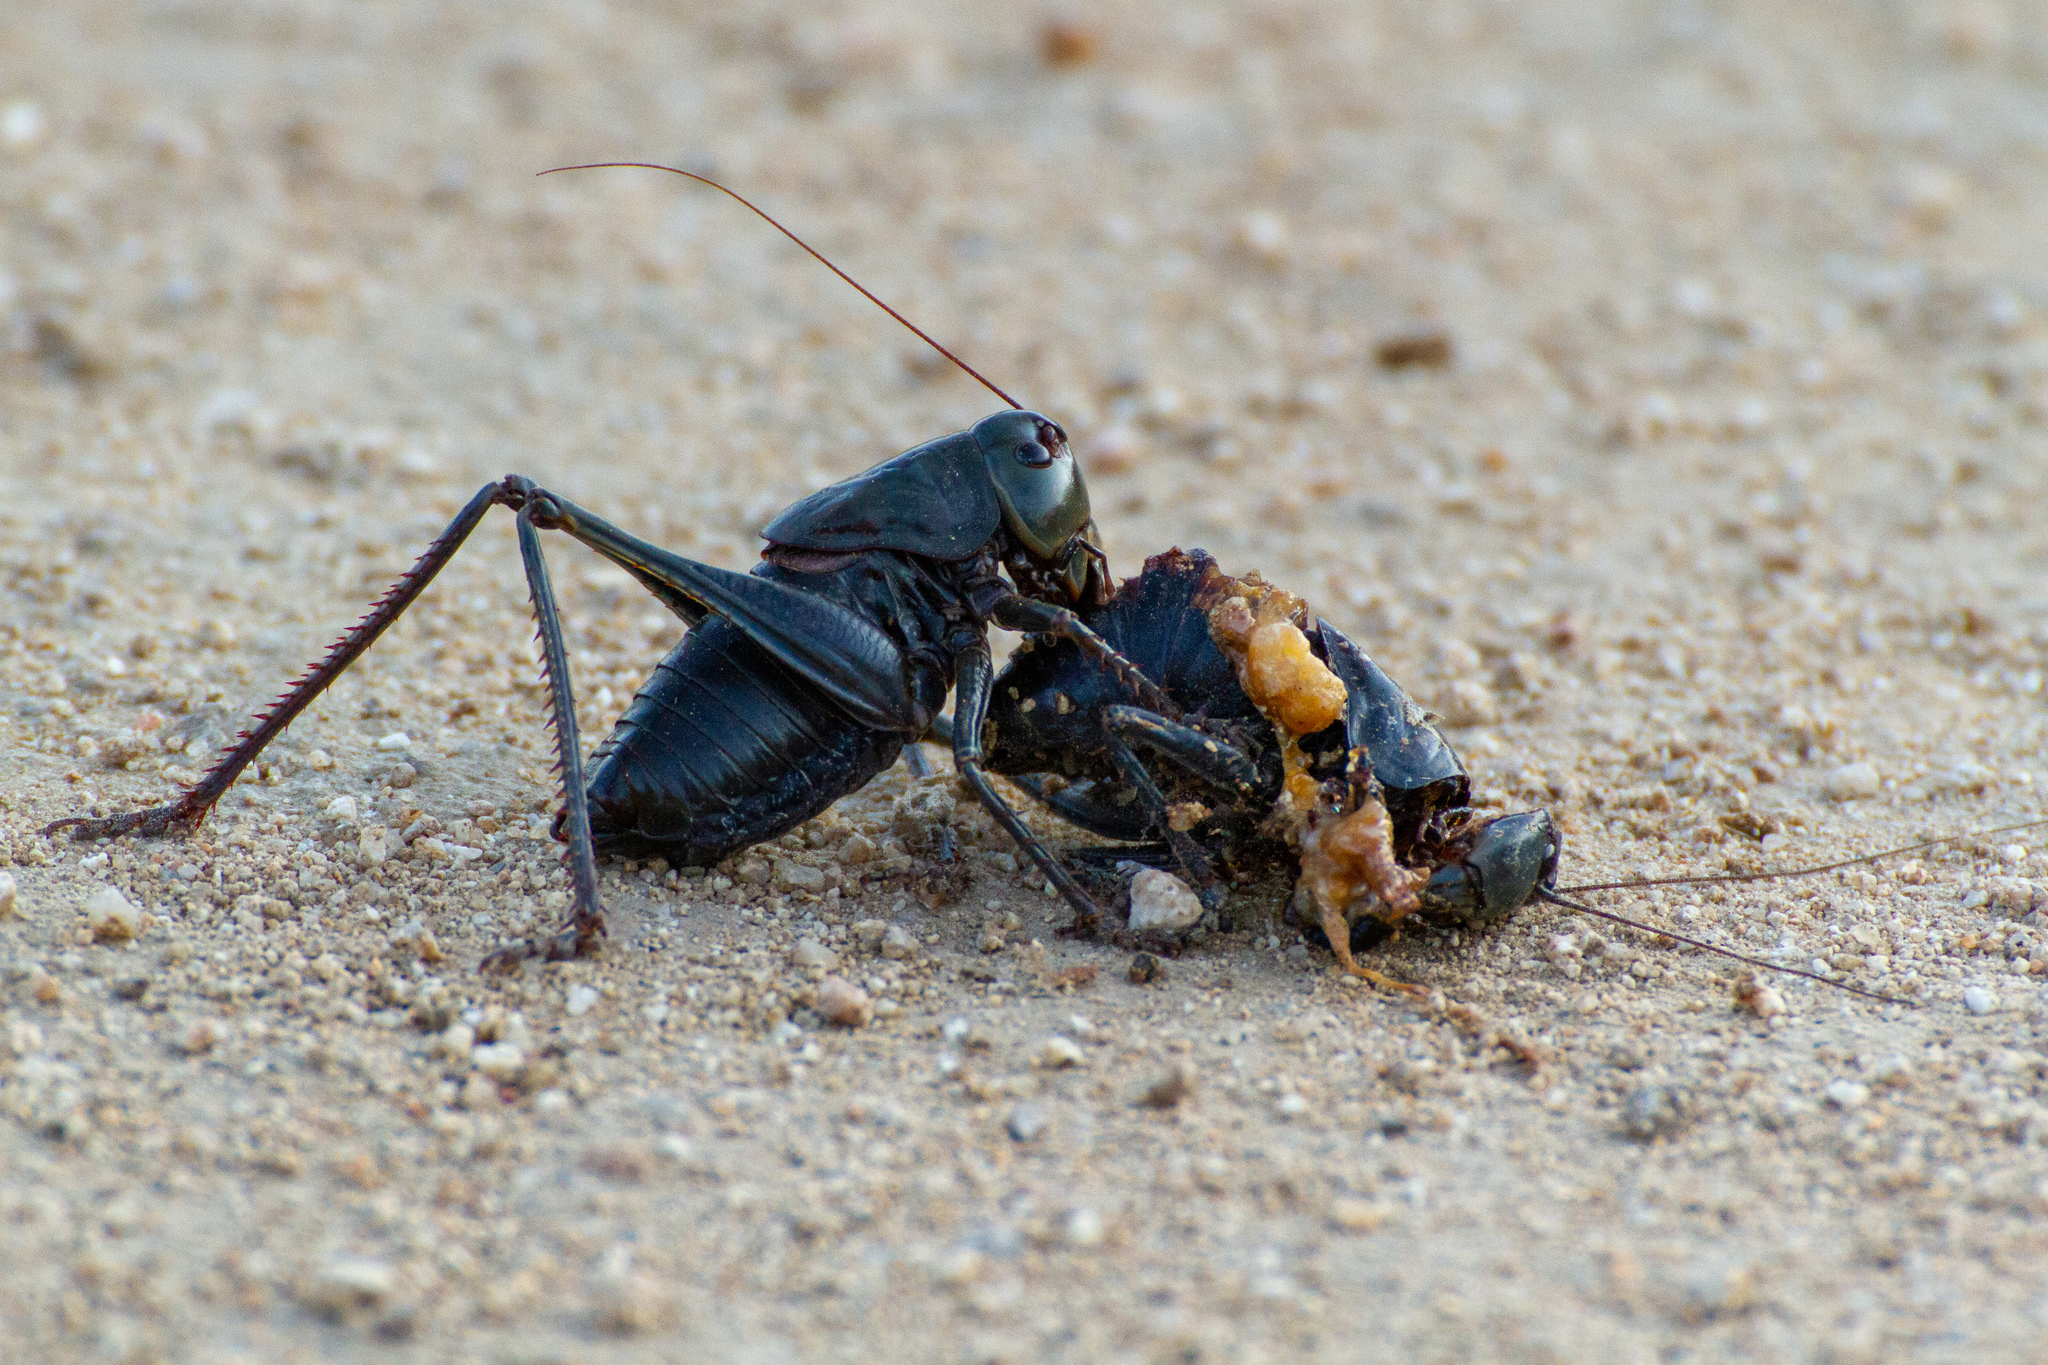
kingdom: Animalia
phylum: Arthropoda
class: Insecta
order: Orthoptera
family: Tettigoniidae
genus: Anabrus
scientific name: Anabrus simplex
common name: Mormon cricket
